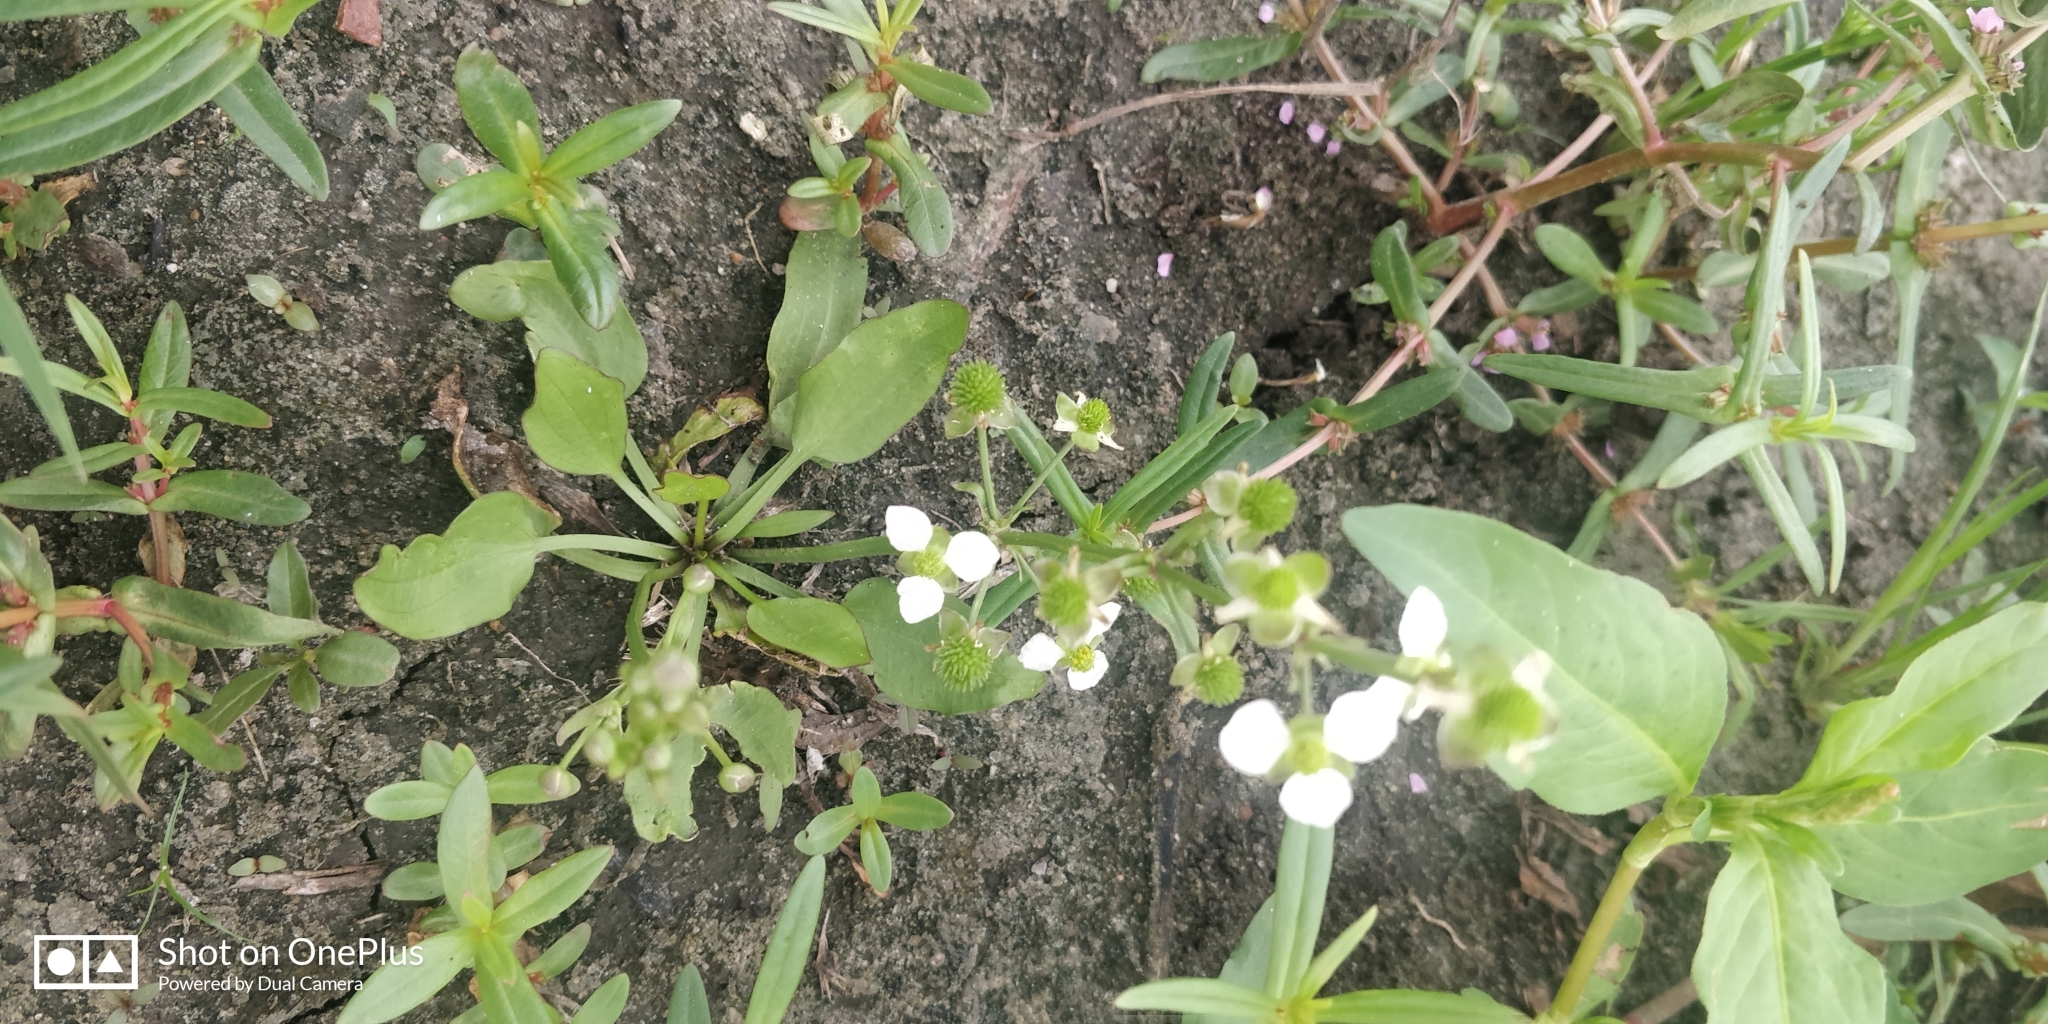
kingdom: Plantae
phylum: Tracheophyta
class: Liliopsida
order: Alismatales
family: Alismataceae
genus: Echinodorus
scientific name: Echinodorus berteroi
